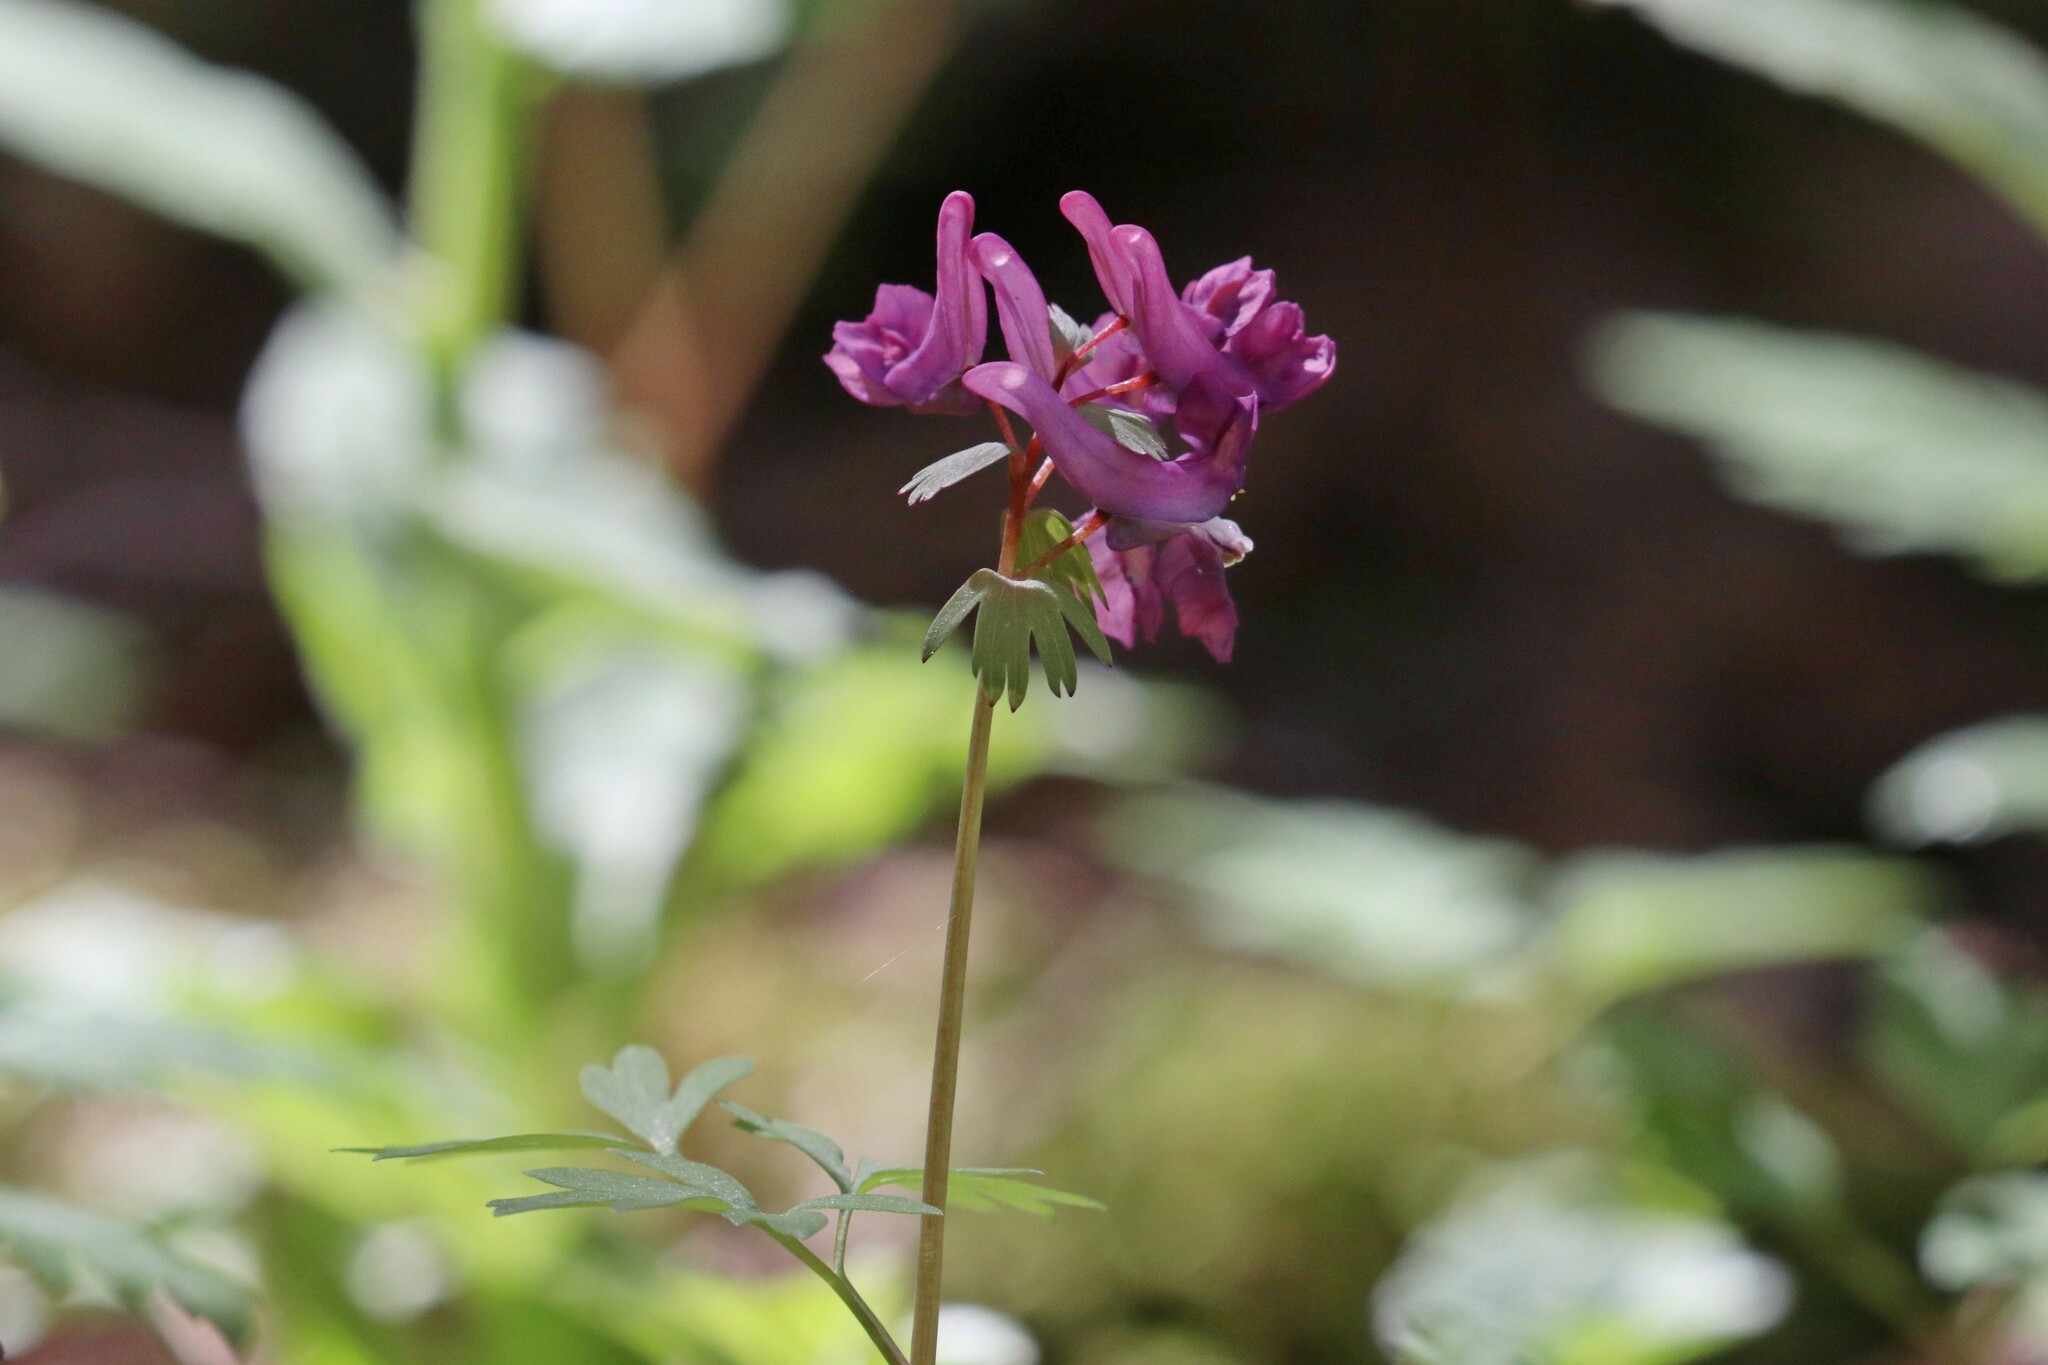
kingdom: Plantae
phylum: Tracheophyta
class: Magnoliopsida
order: Ranunculales
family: Papaveraceae
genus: Corydalis
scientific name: Corydalis solida
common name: Bird-in-a-bush
